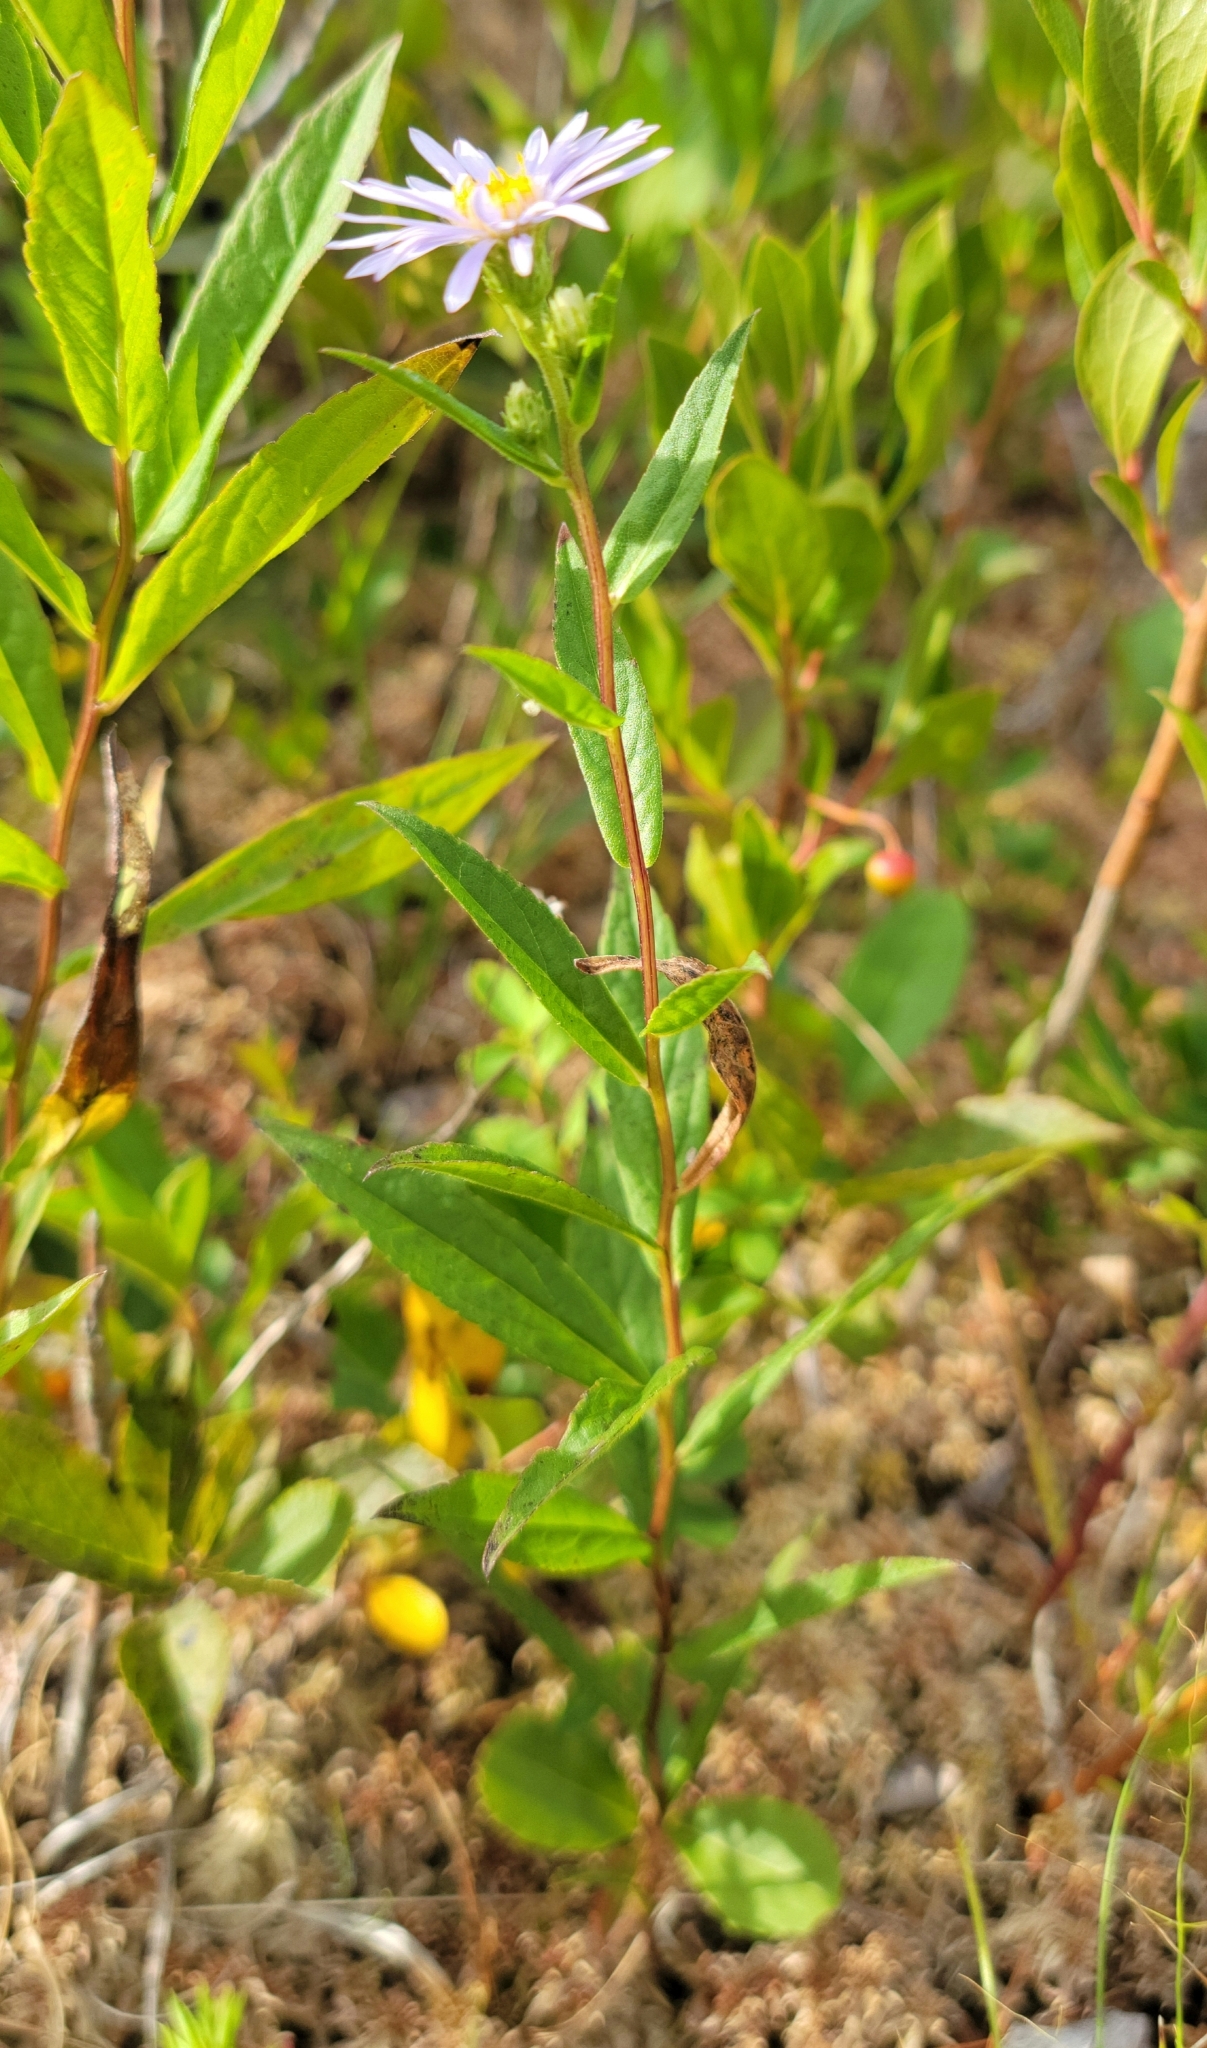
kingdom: Plantae
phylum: Tracheophyta
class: Magnoliopsida
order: Asterales
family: Asteraceae
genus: Oclemena
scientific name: Oclemena nemoralis
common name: Bog aster
